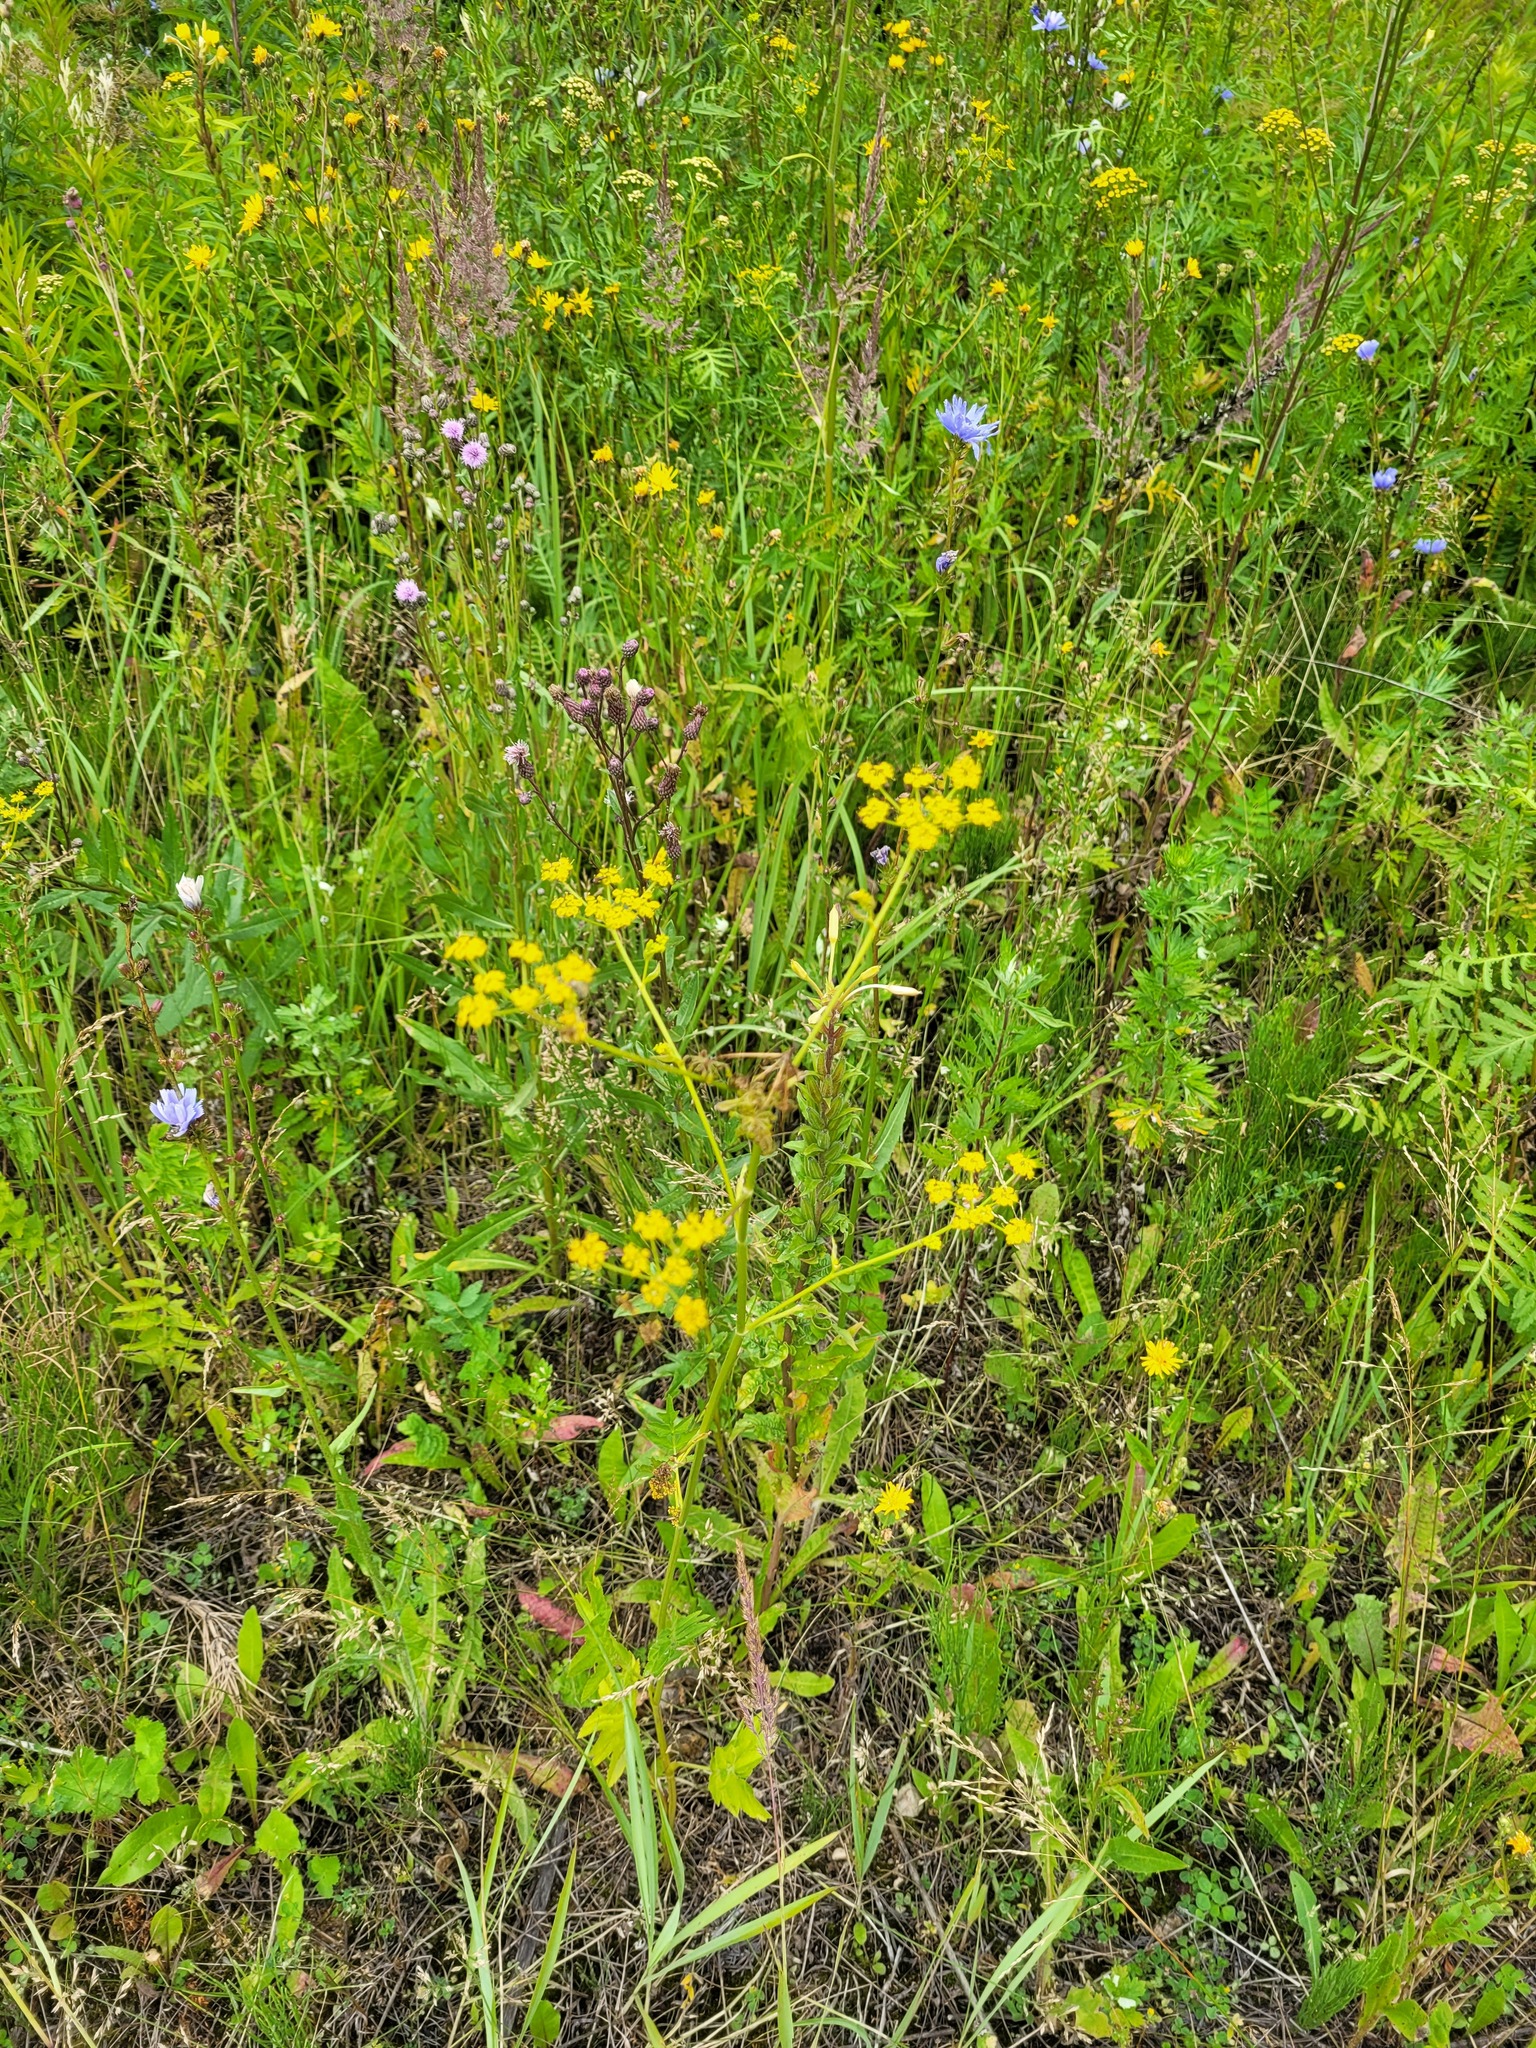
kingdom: Plantae
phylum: Tracheophyta
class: Magnoliopsida
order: Apiales
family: Apiaceae
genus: Pastinaca
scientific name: Pastinaca sativa
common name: Wild parsnip
